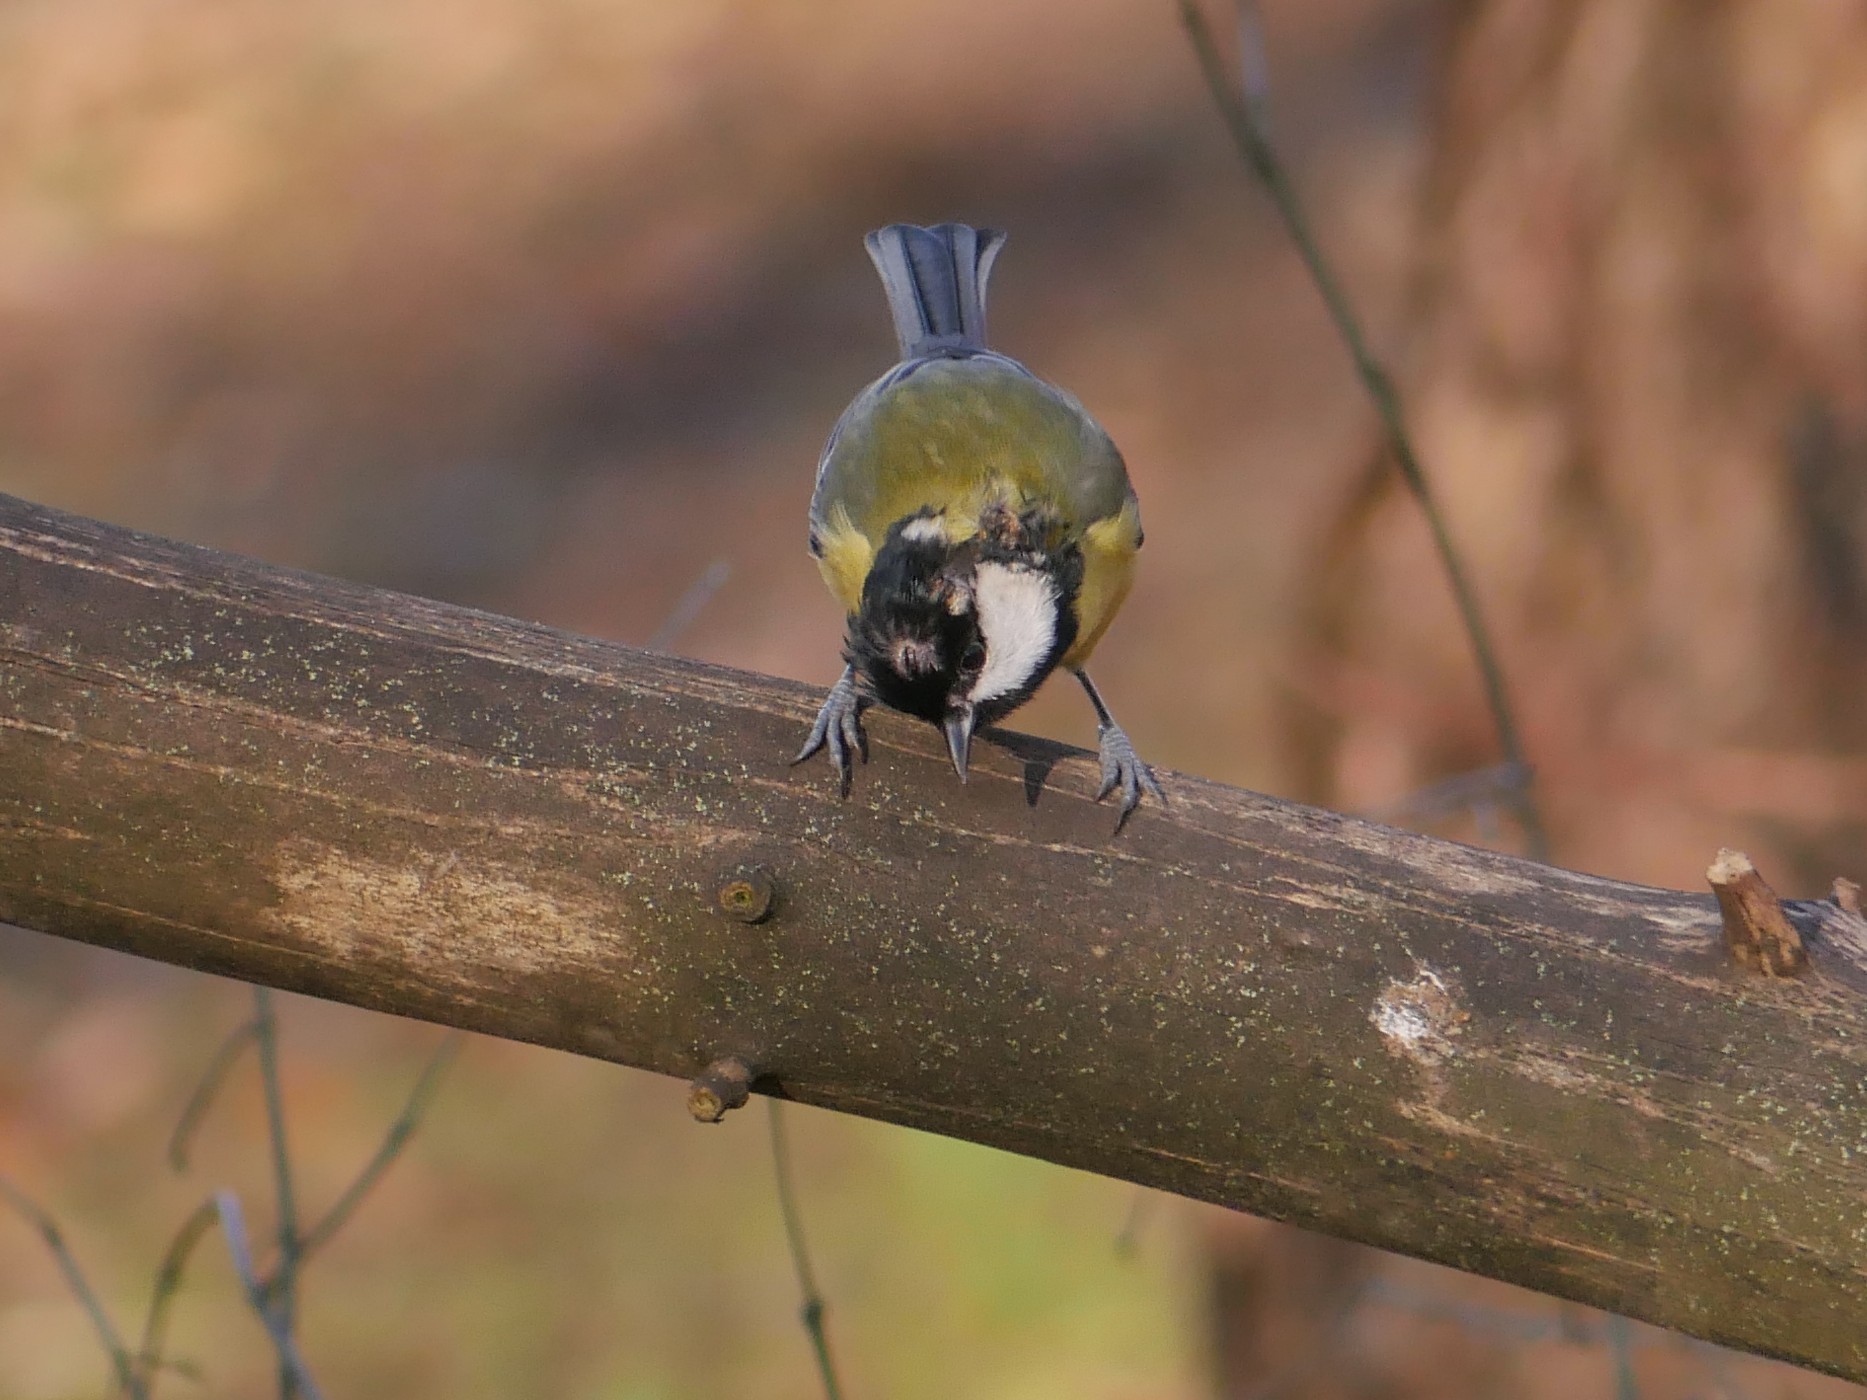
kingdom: Animalia
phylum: Chordata
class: Aves
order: Passeriformes
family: Paridae
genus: Parus
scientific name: Parus major
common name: Great tit
